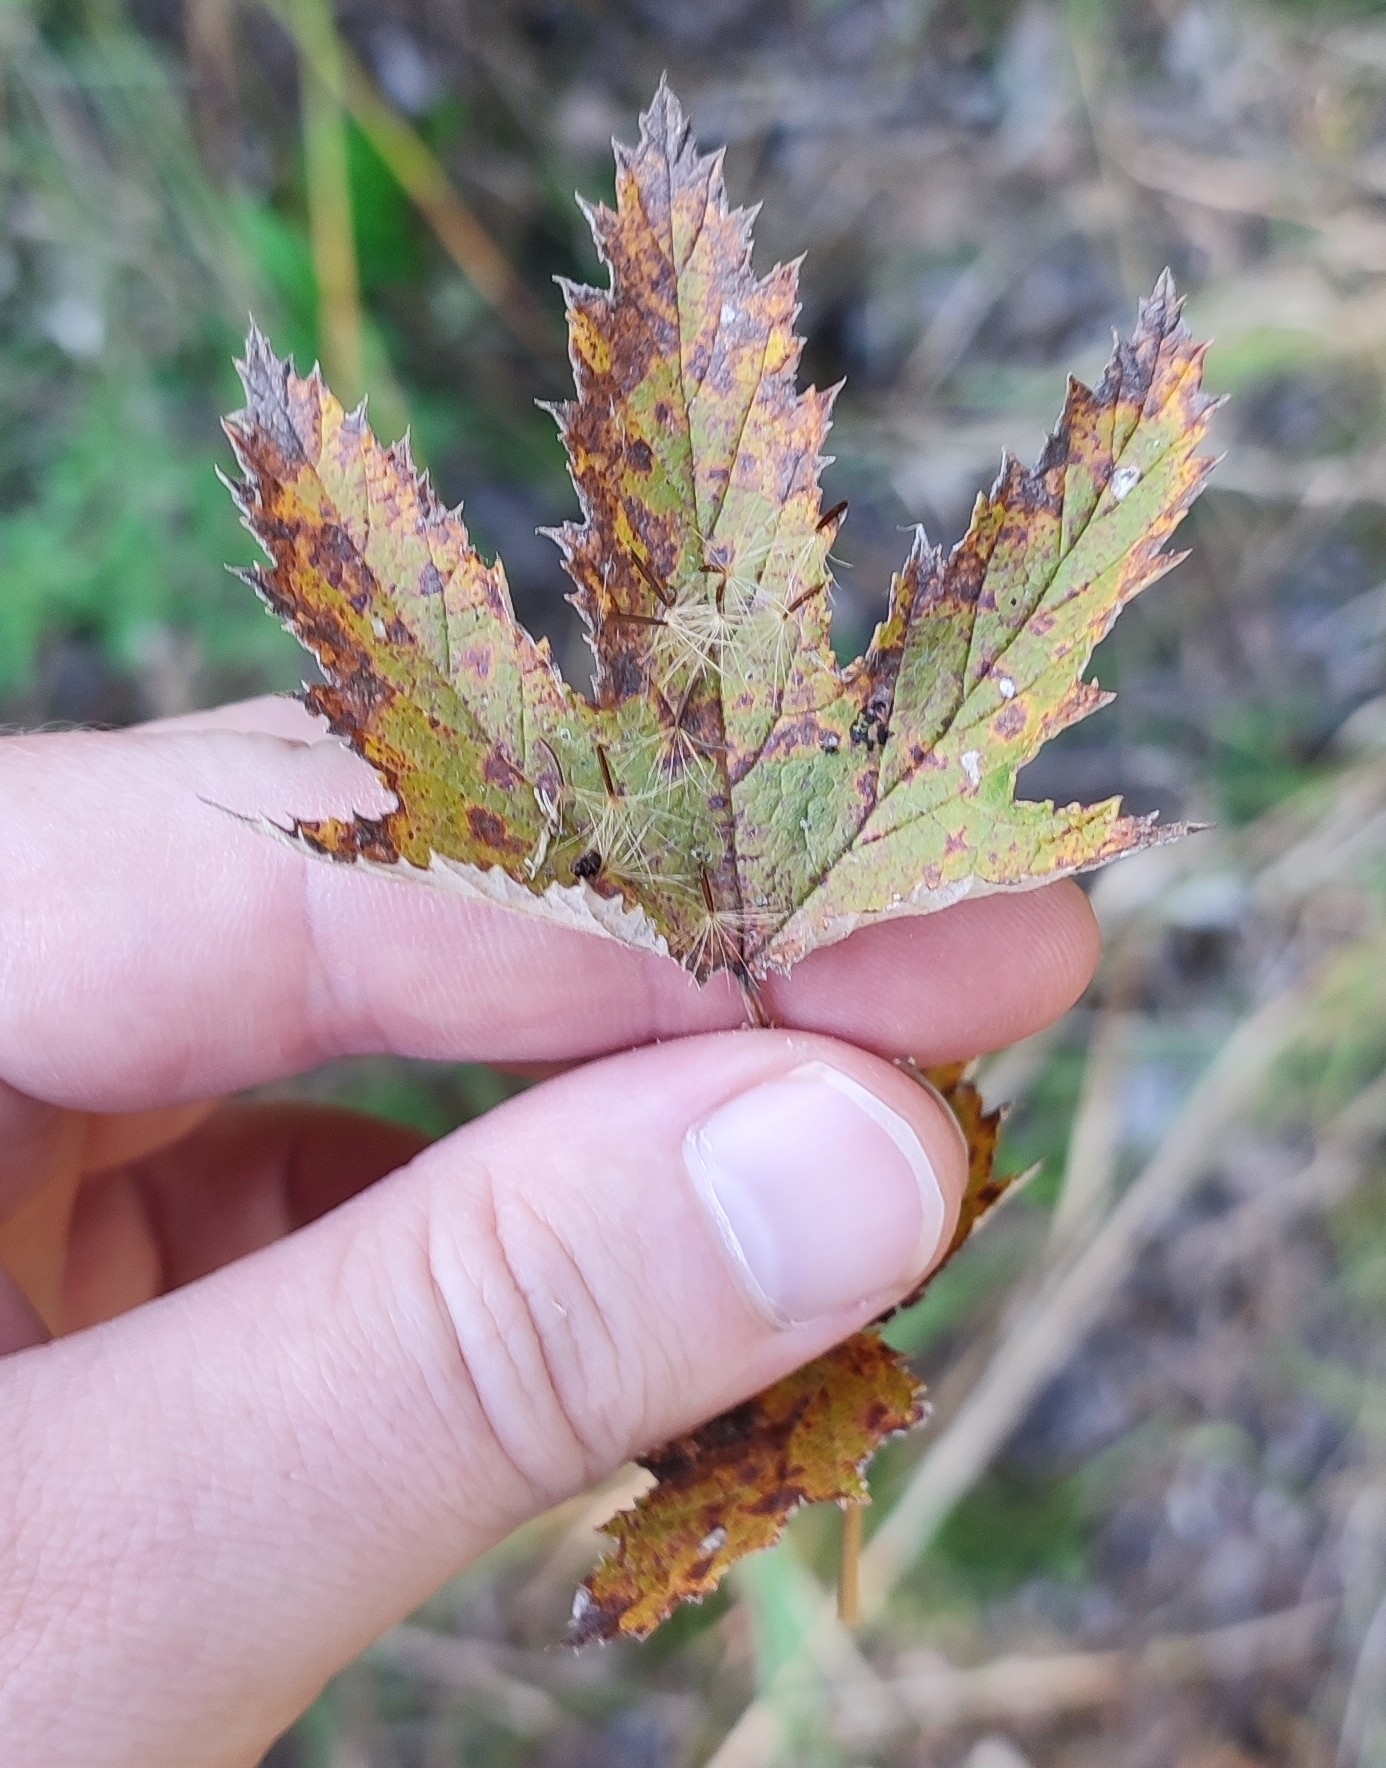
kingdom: Plantae
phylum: Tracheophyta
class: Magnoliopsida
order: Rosales
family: Rosaceae
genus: Filipendula
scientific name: Filipendula ulmaria
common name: Meadowsweet
